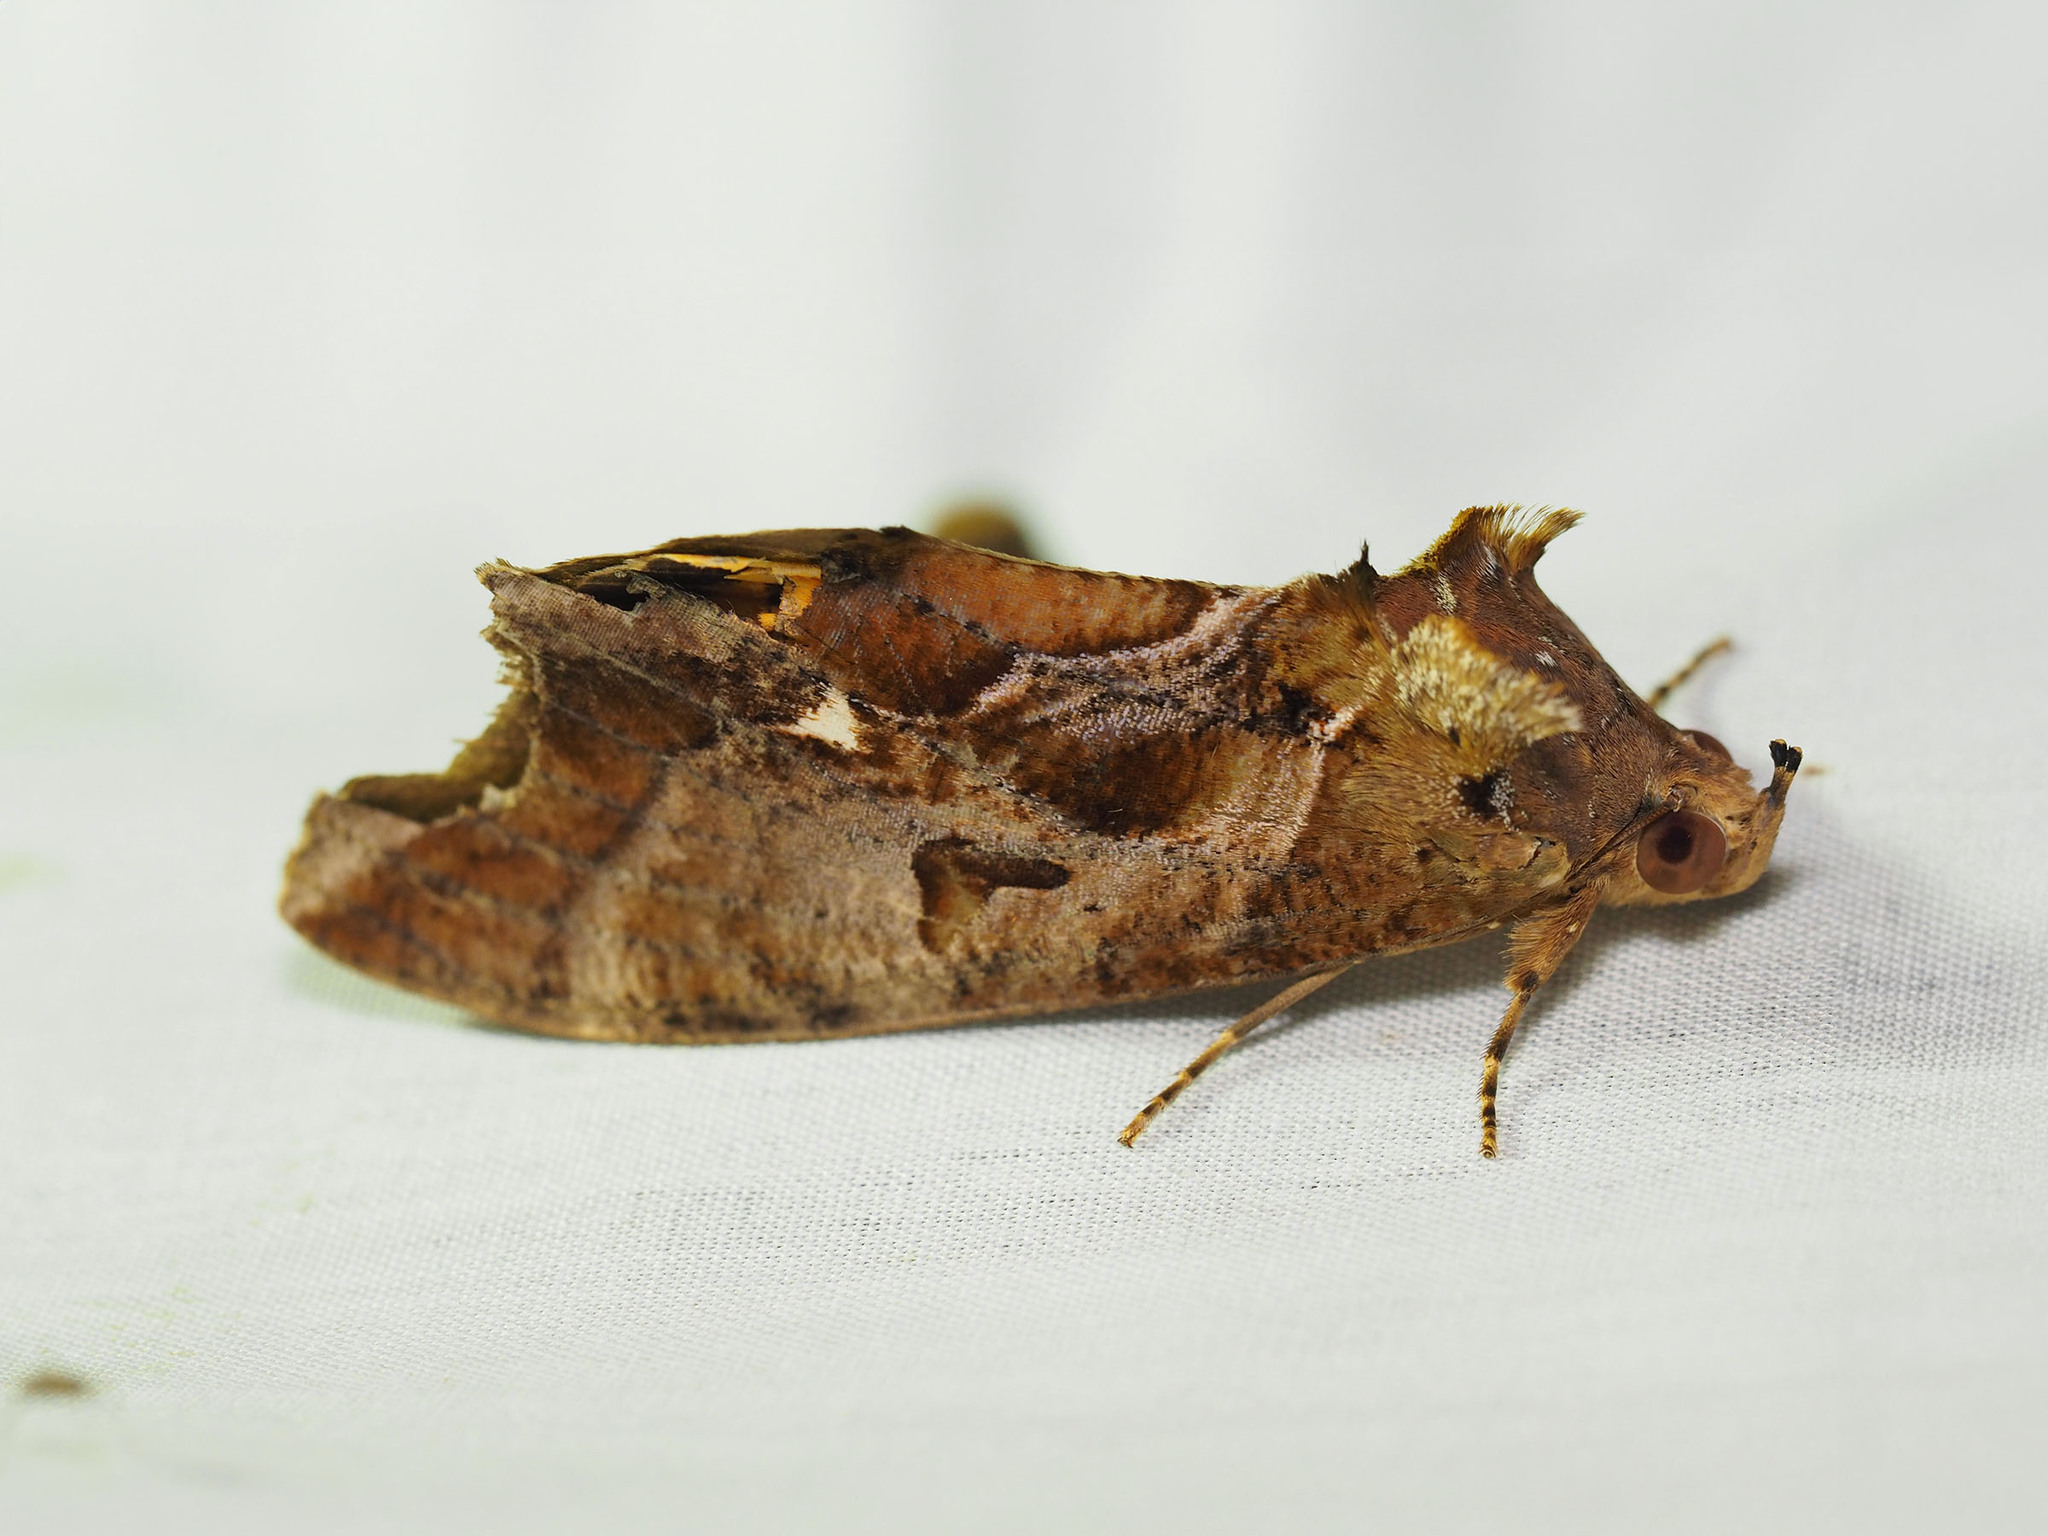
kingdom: Animalia
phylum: Arthropoda
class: Insecta
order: Lepidoptera
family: Erebidae
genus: Eudocima
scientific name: Eudocima phalonia
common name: Wasp
